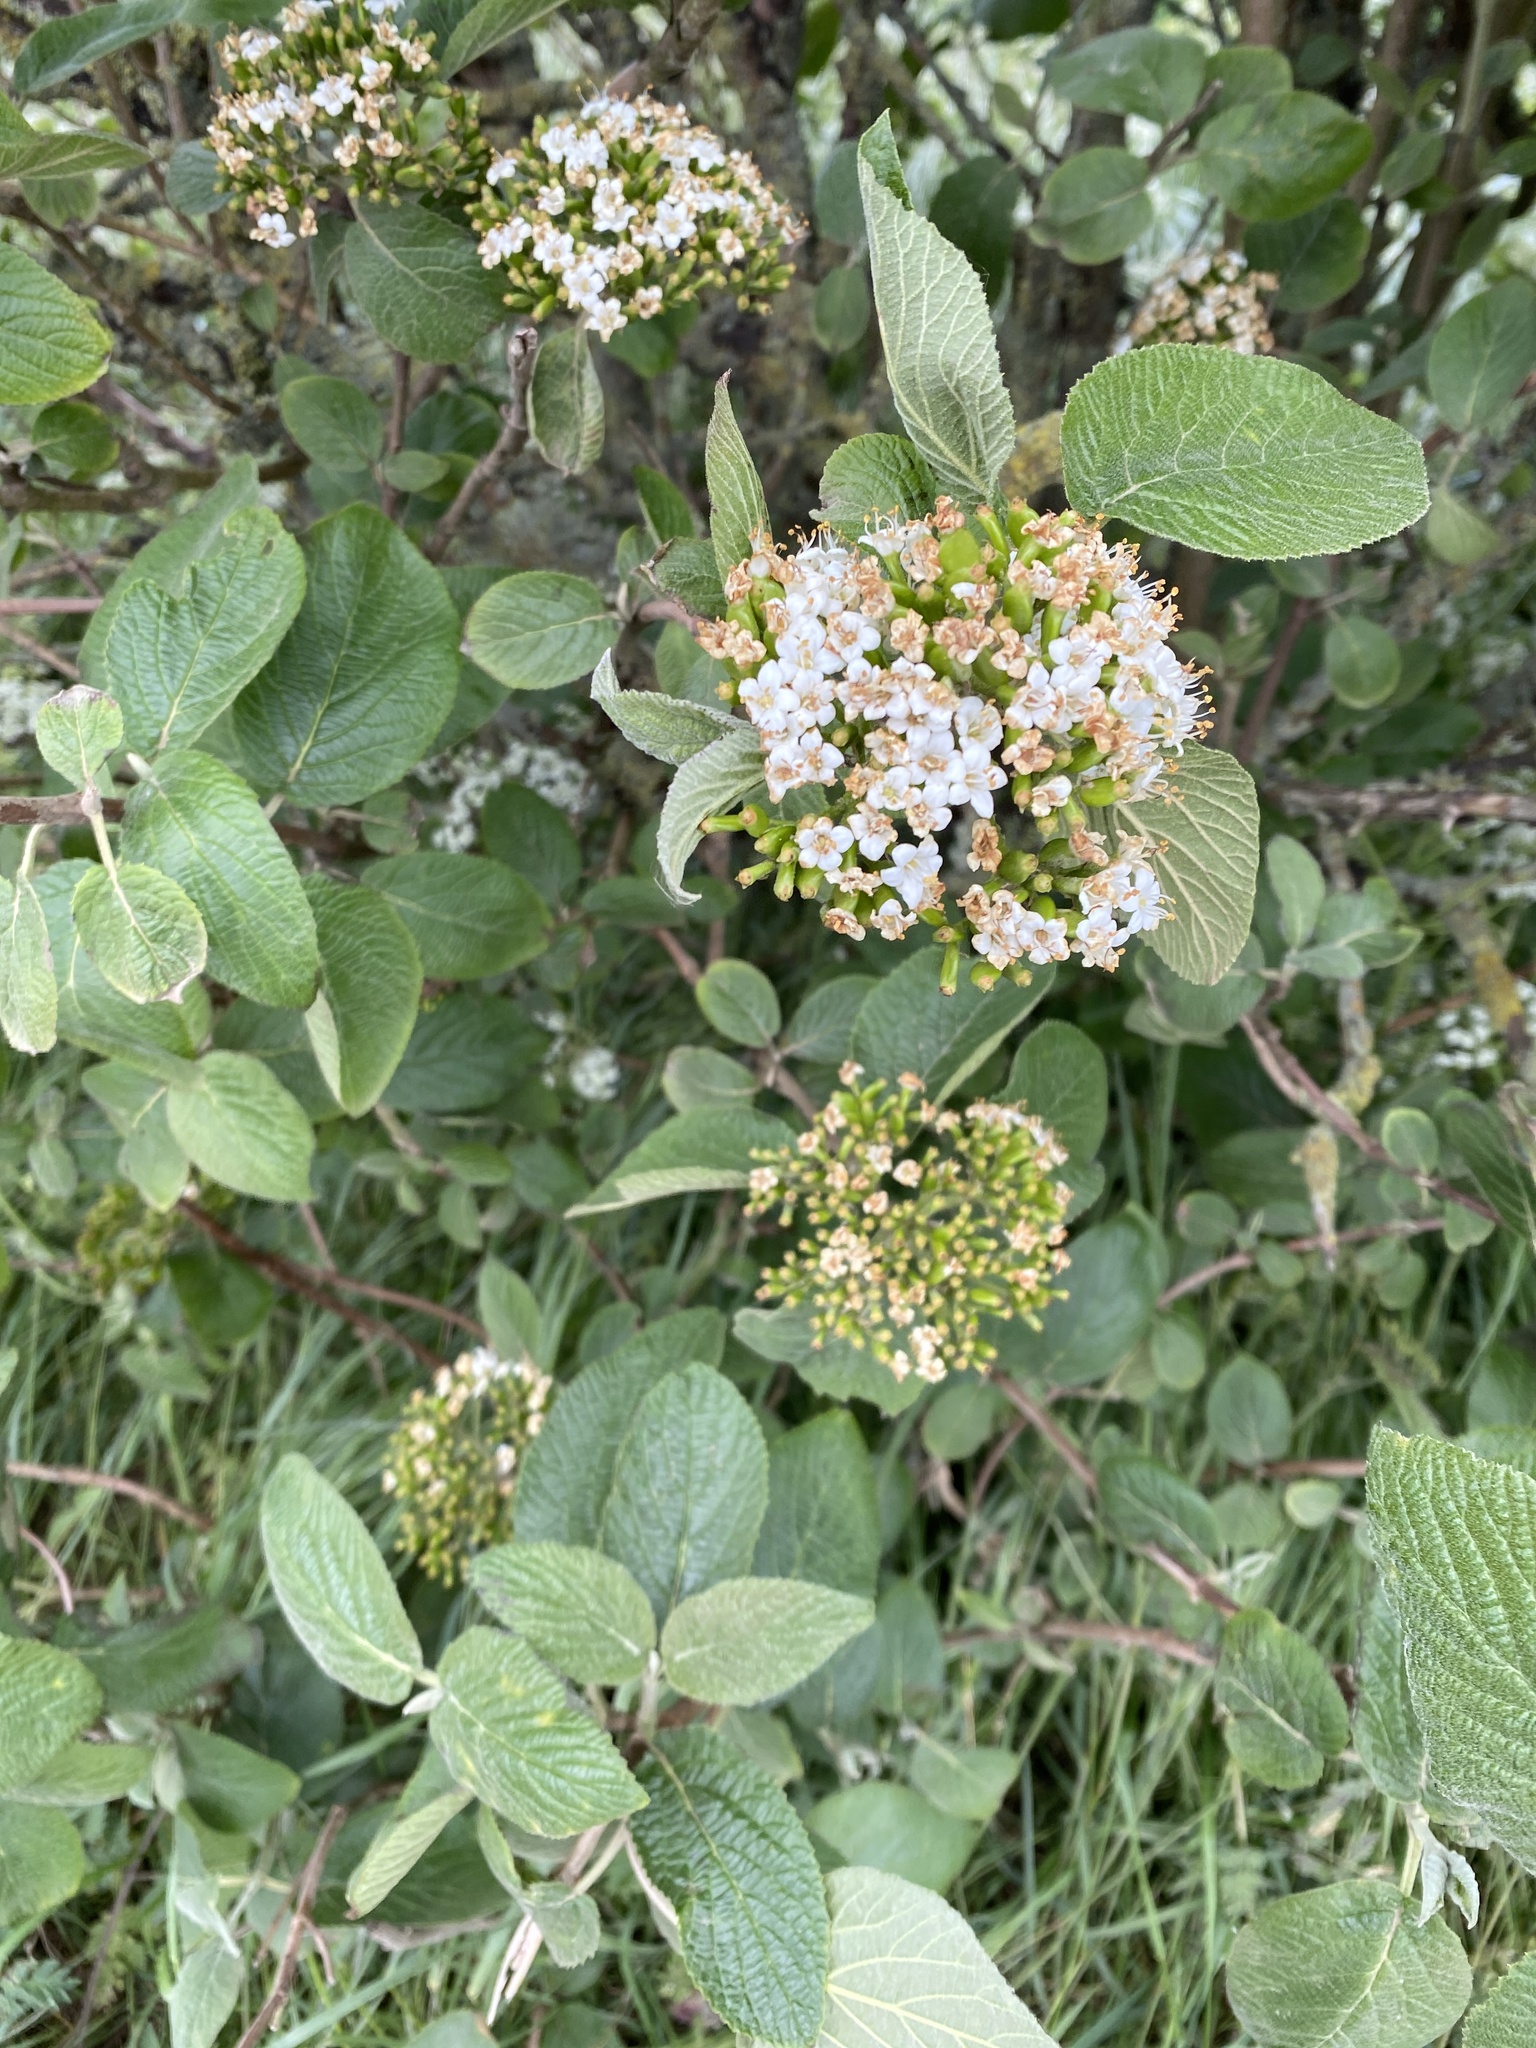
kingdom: Plantae
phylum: Tracheophyta
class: Magnoliopsida
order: Dipsacales
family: Viburnaceae
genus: Viburnum
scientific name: Viburnum lantana
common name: Wayfaring tree
